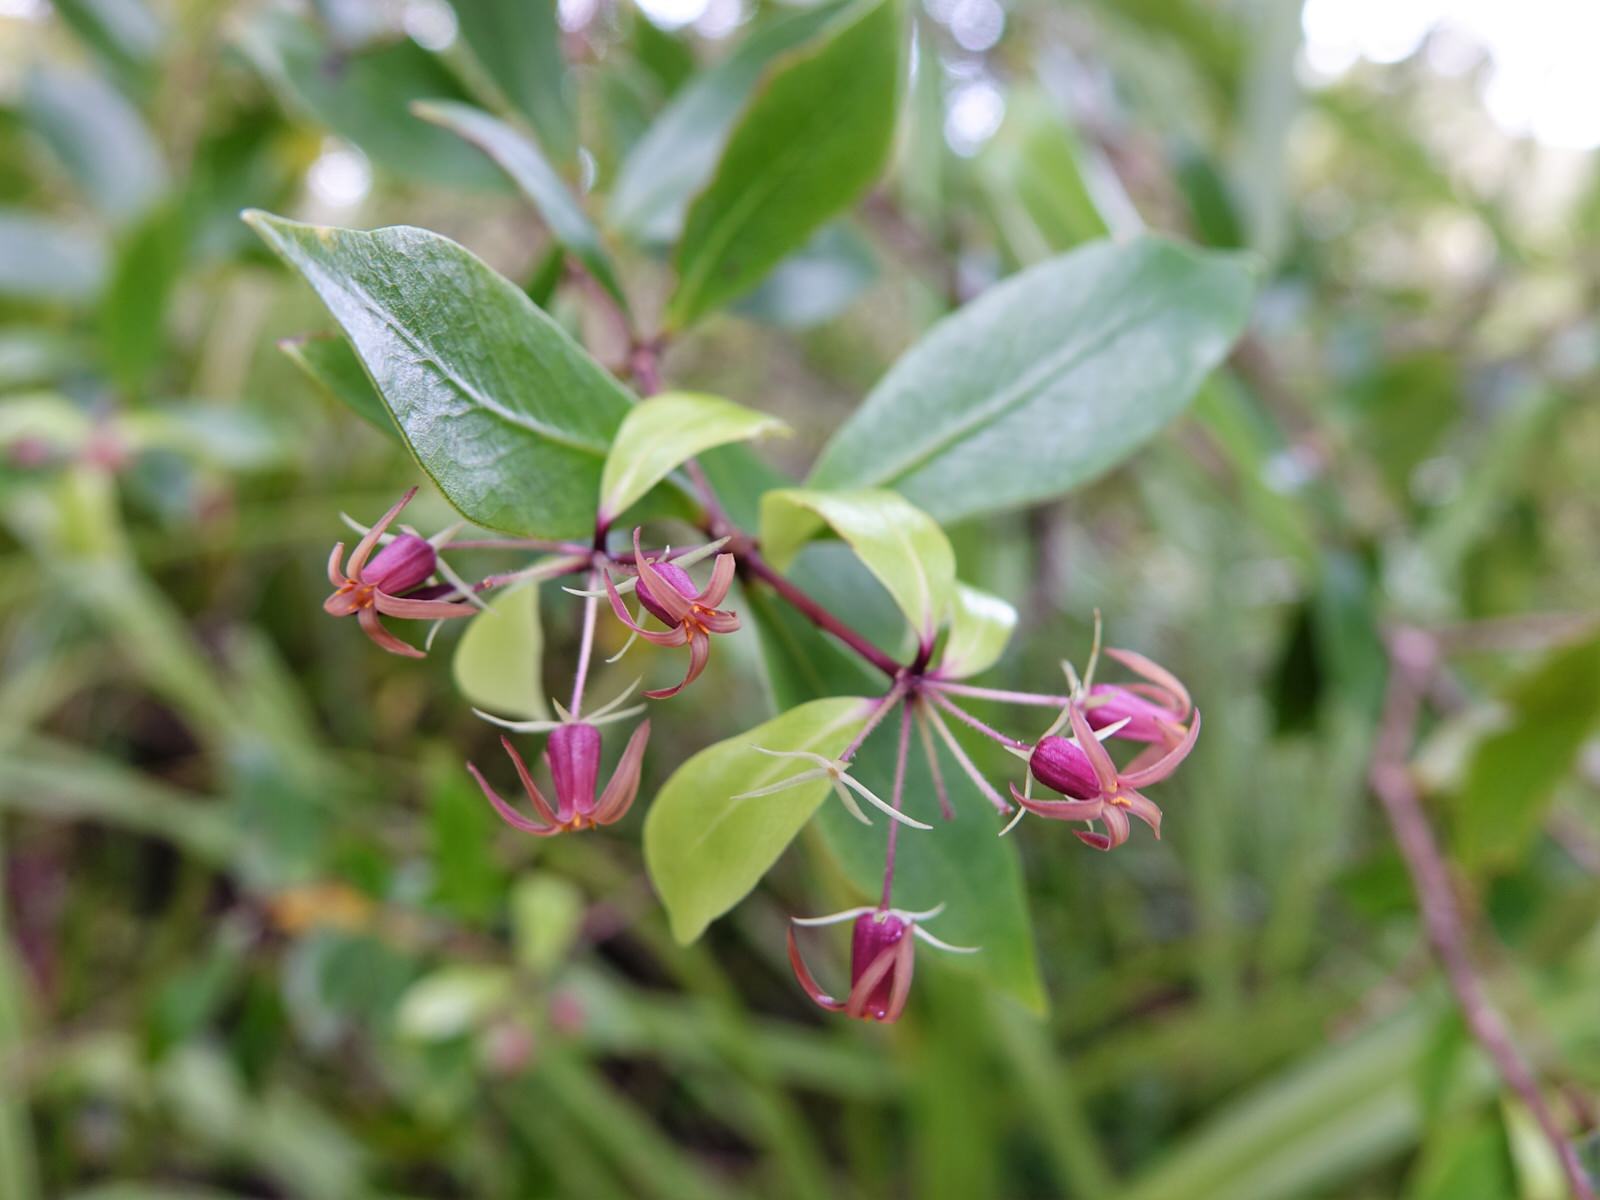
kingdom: Plantae
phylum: Tracheophyta
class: Magnoliopsida
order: Apiales
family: Pittosporaceae
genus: Pittosporum
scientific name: Pittosporum cornifolium
